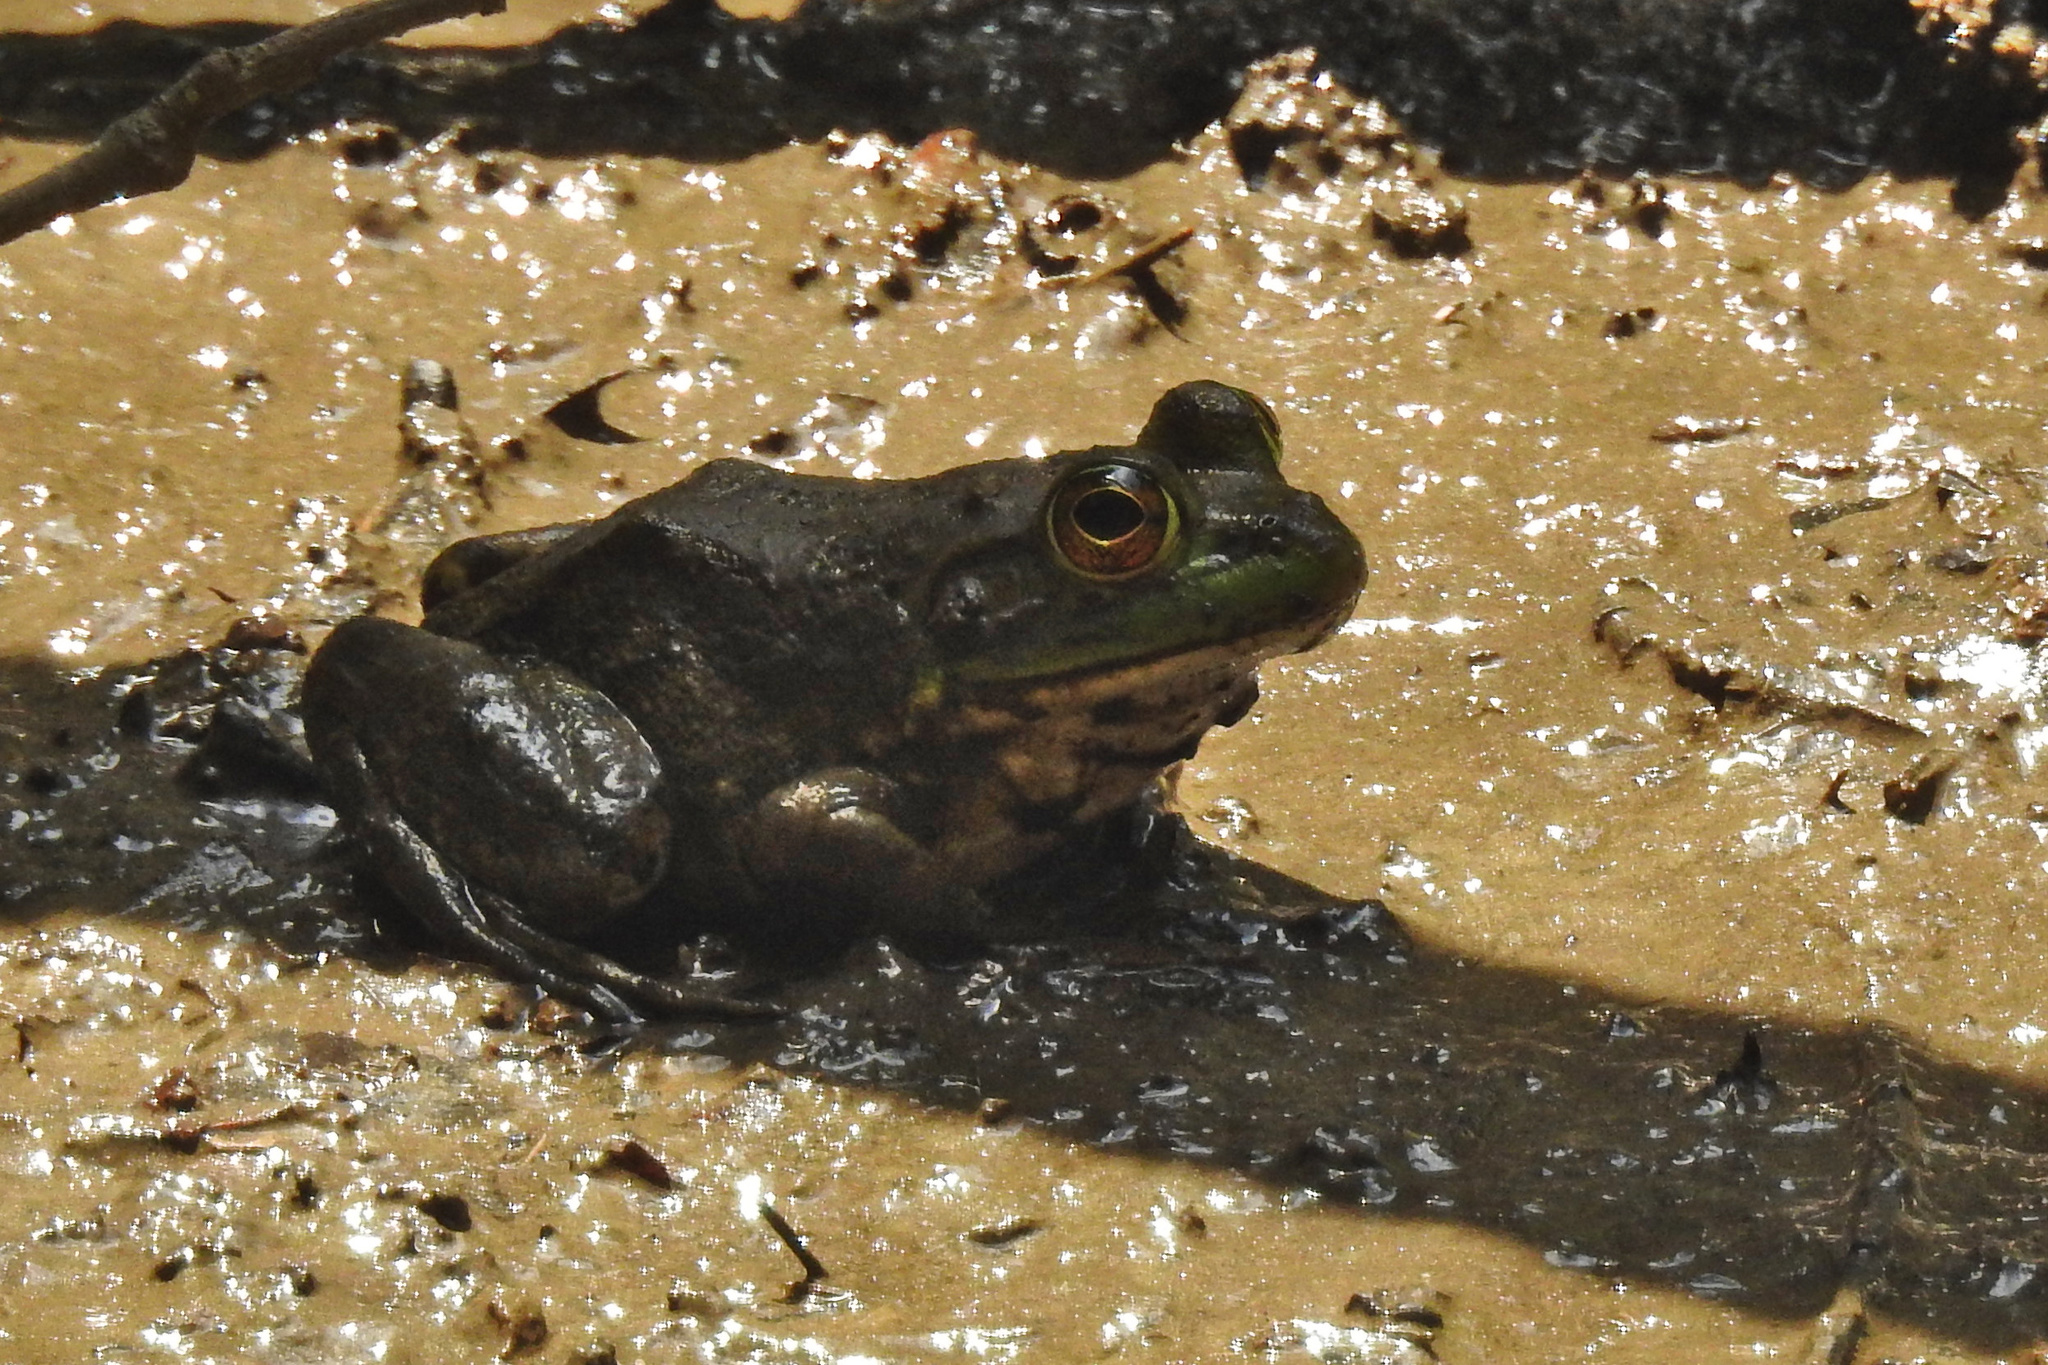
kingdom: Animalia
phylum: Chordata
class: Amphibia
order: Anura
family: Ranidae
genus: Lithobates
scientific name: Lithobates catesbeianus
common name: American bullfrog
